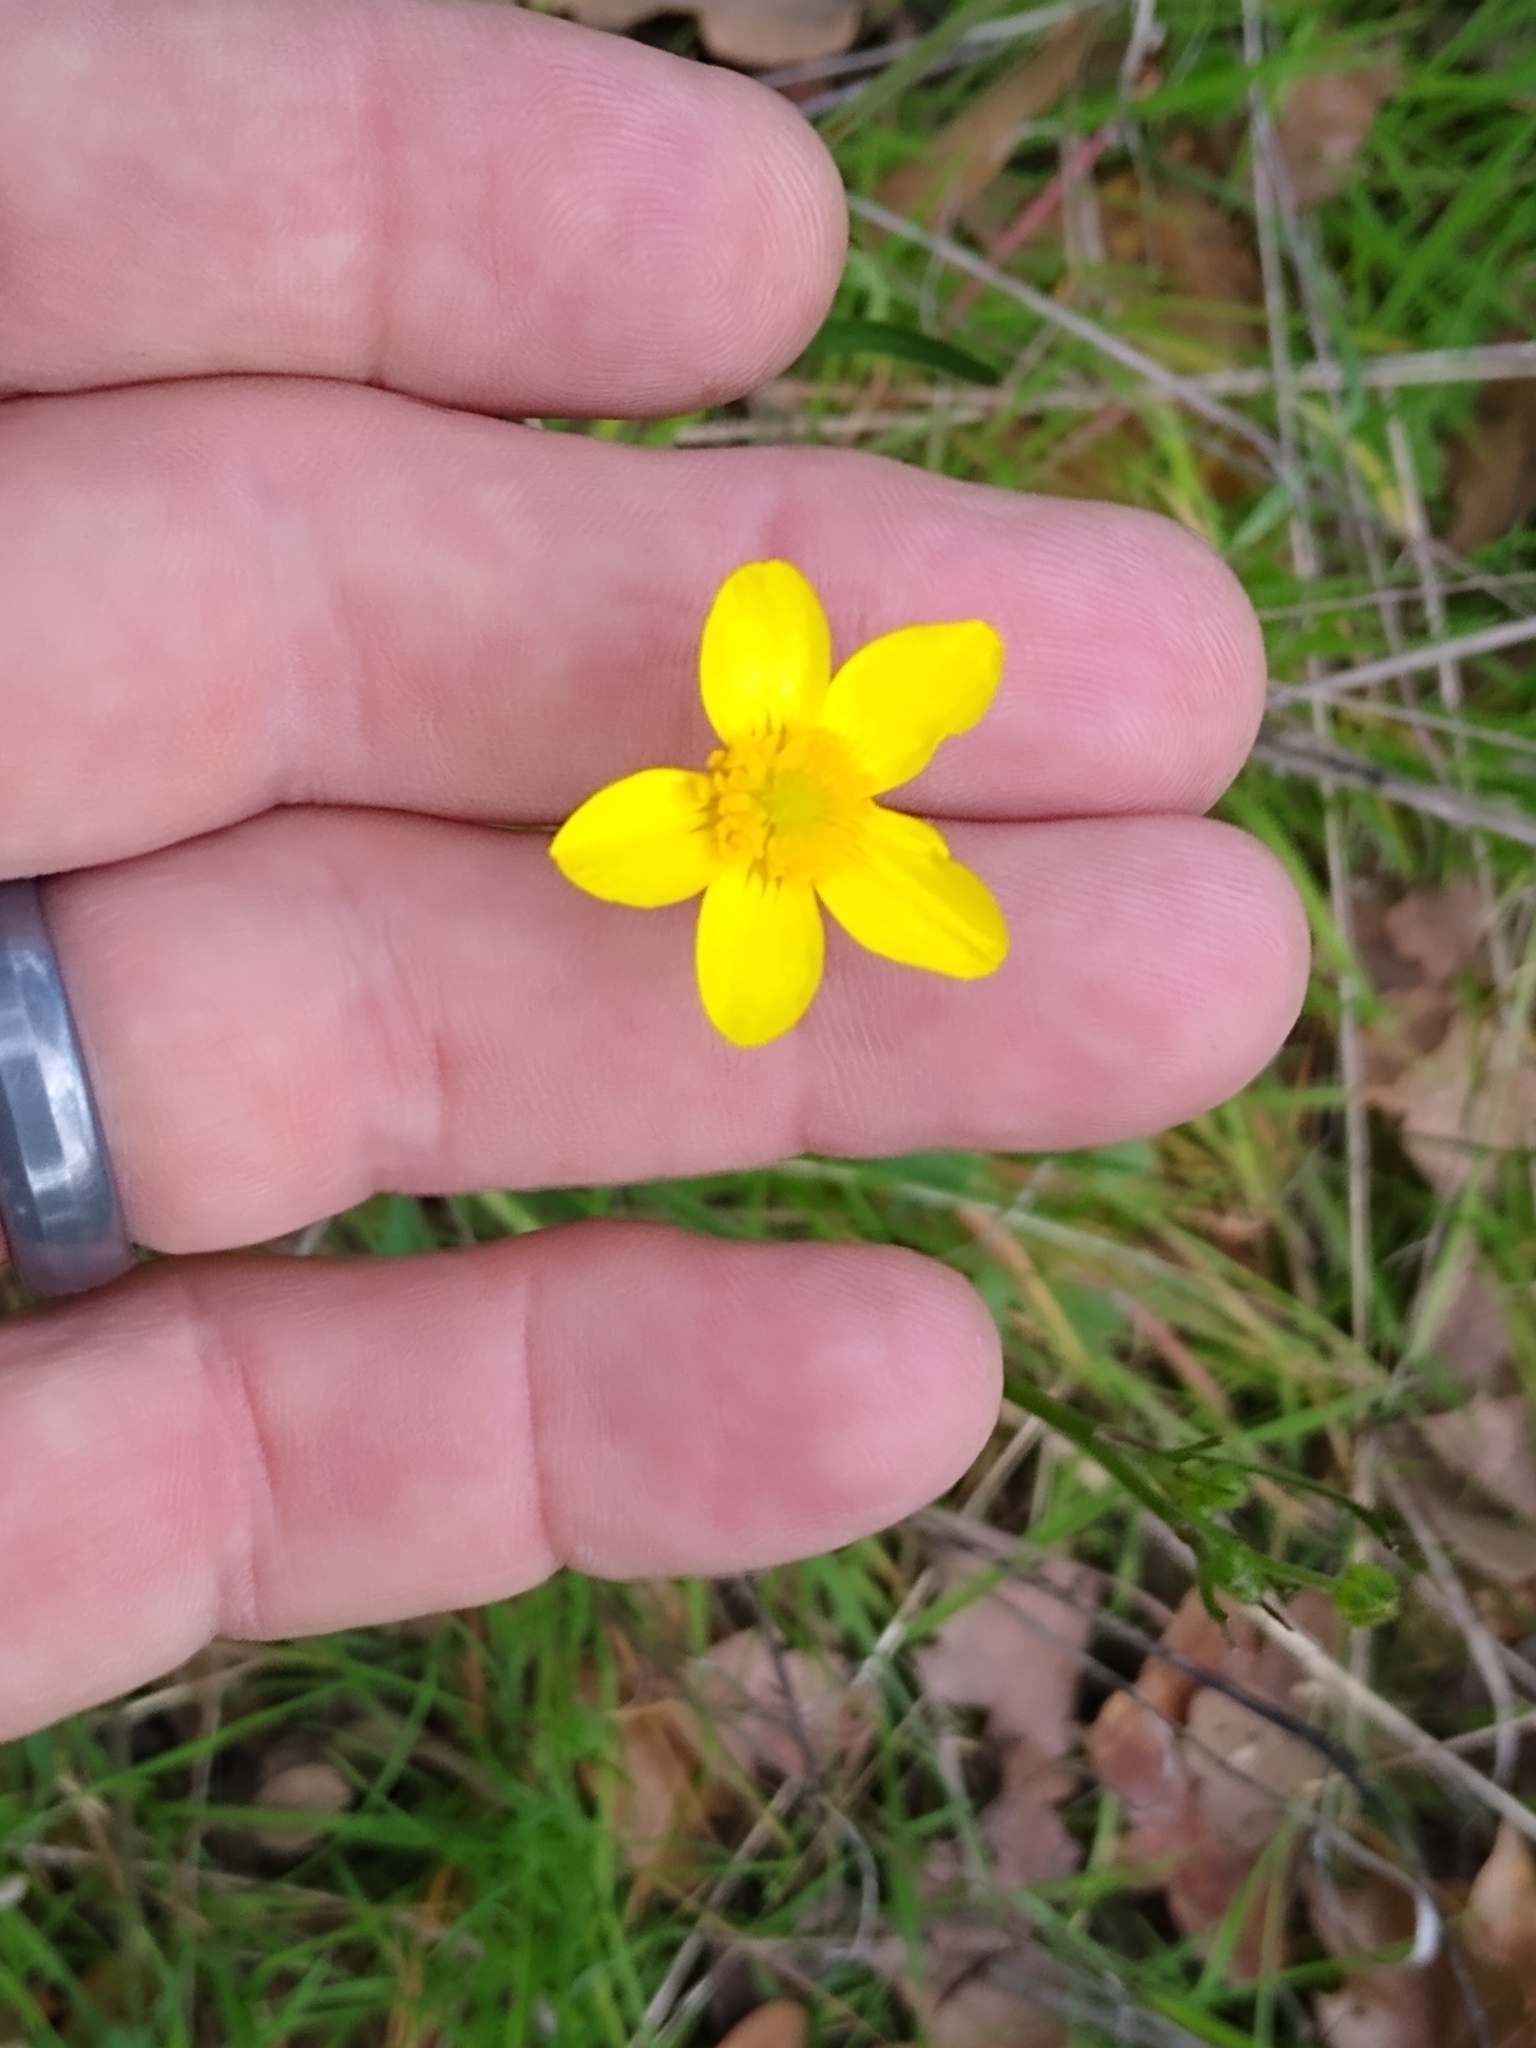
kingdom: Plantae
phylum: Tracheophyta
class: Magnoliopsida
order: Ranunculales
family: Ranunculaceae
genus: Ranunculus
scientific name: Ranunculus occidentalis
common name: Western buttercup
